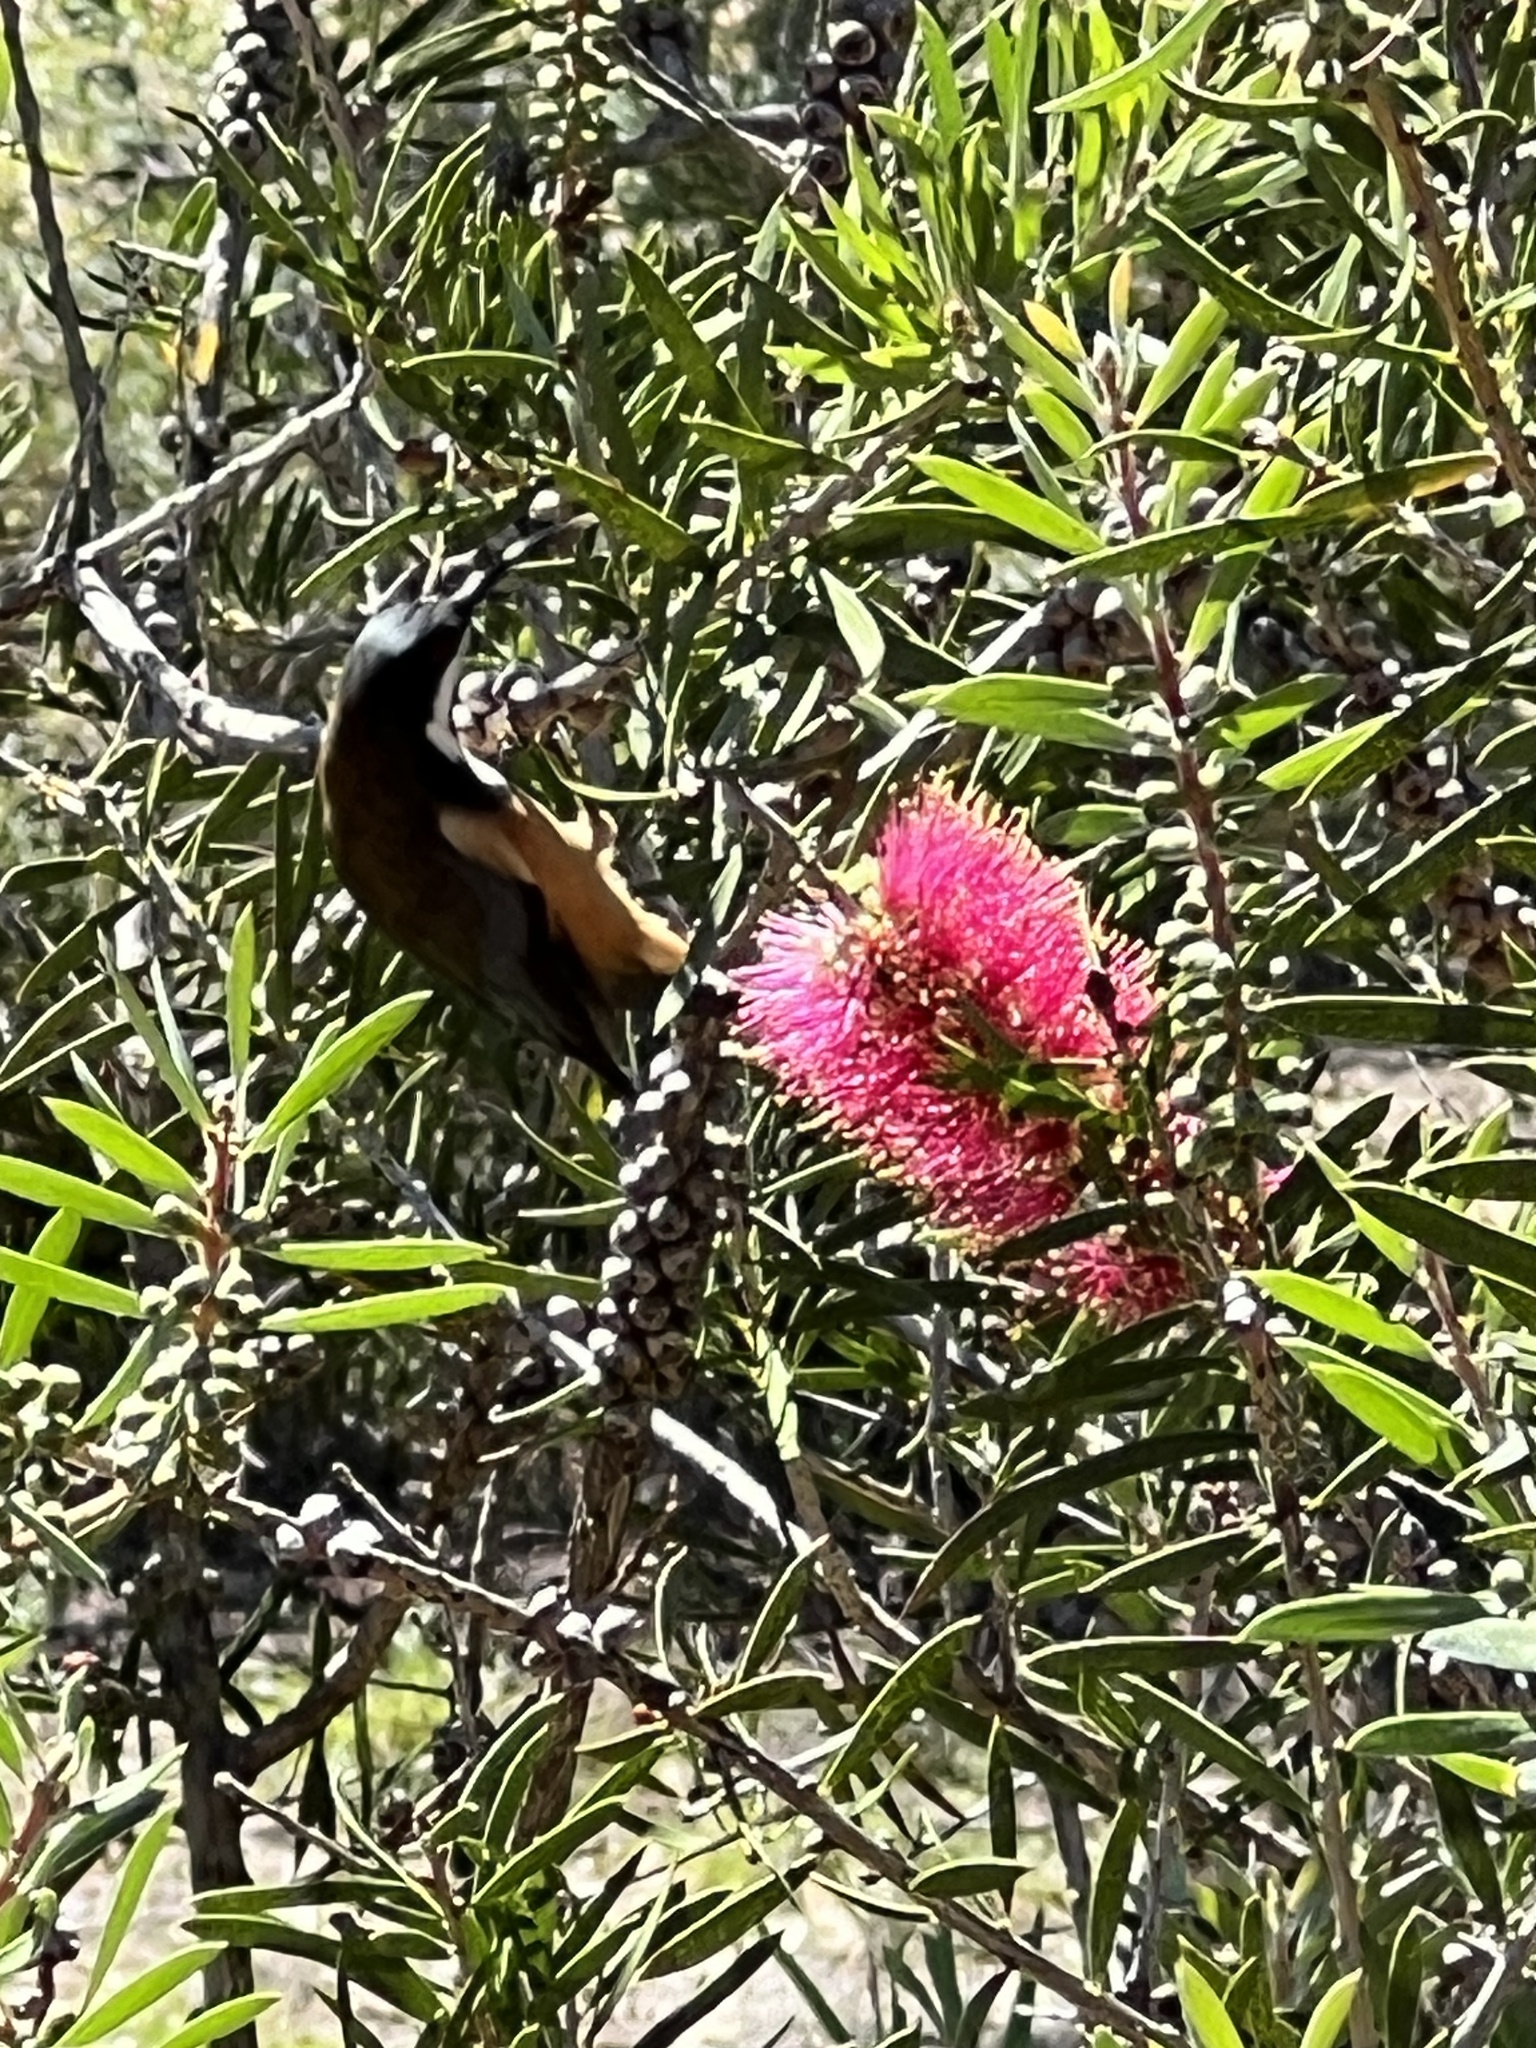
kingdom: Animalia
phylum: Chordata
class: Aves
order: Passeriformes
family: Meliphagidae
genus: Acanthorhynchus
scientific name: Acanthorhynchus tenuirostris
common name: Eastern spinebill
